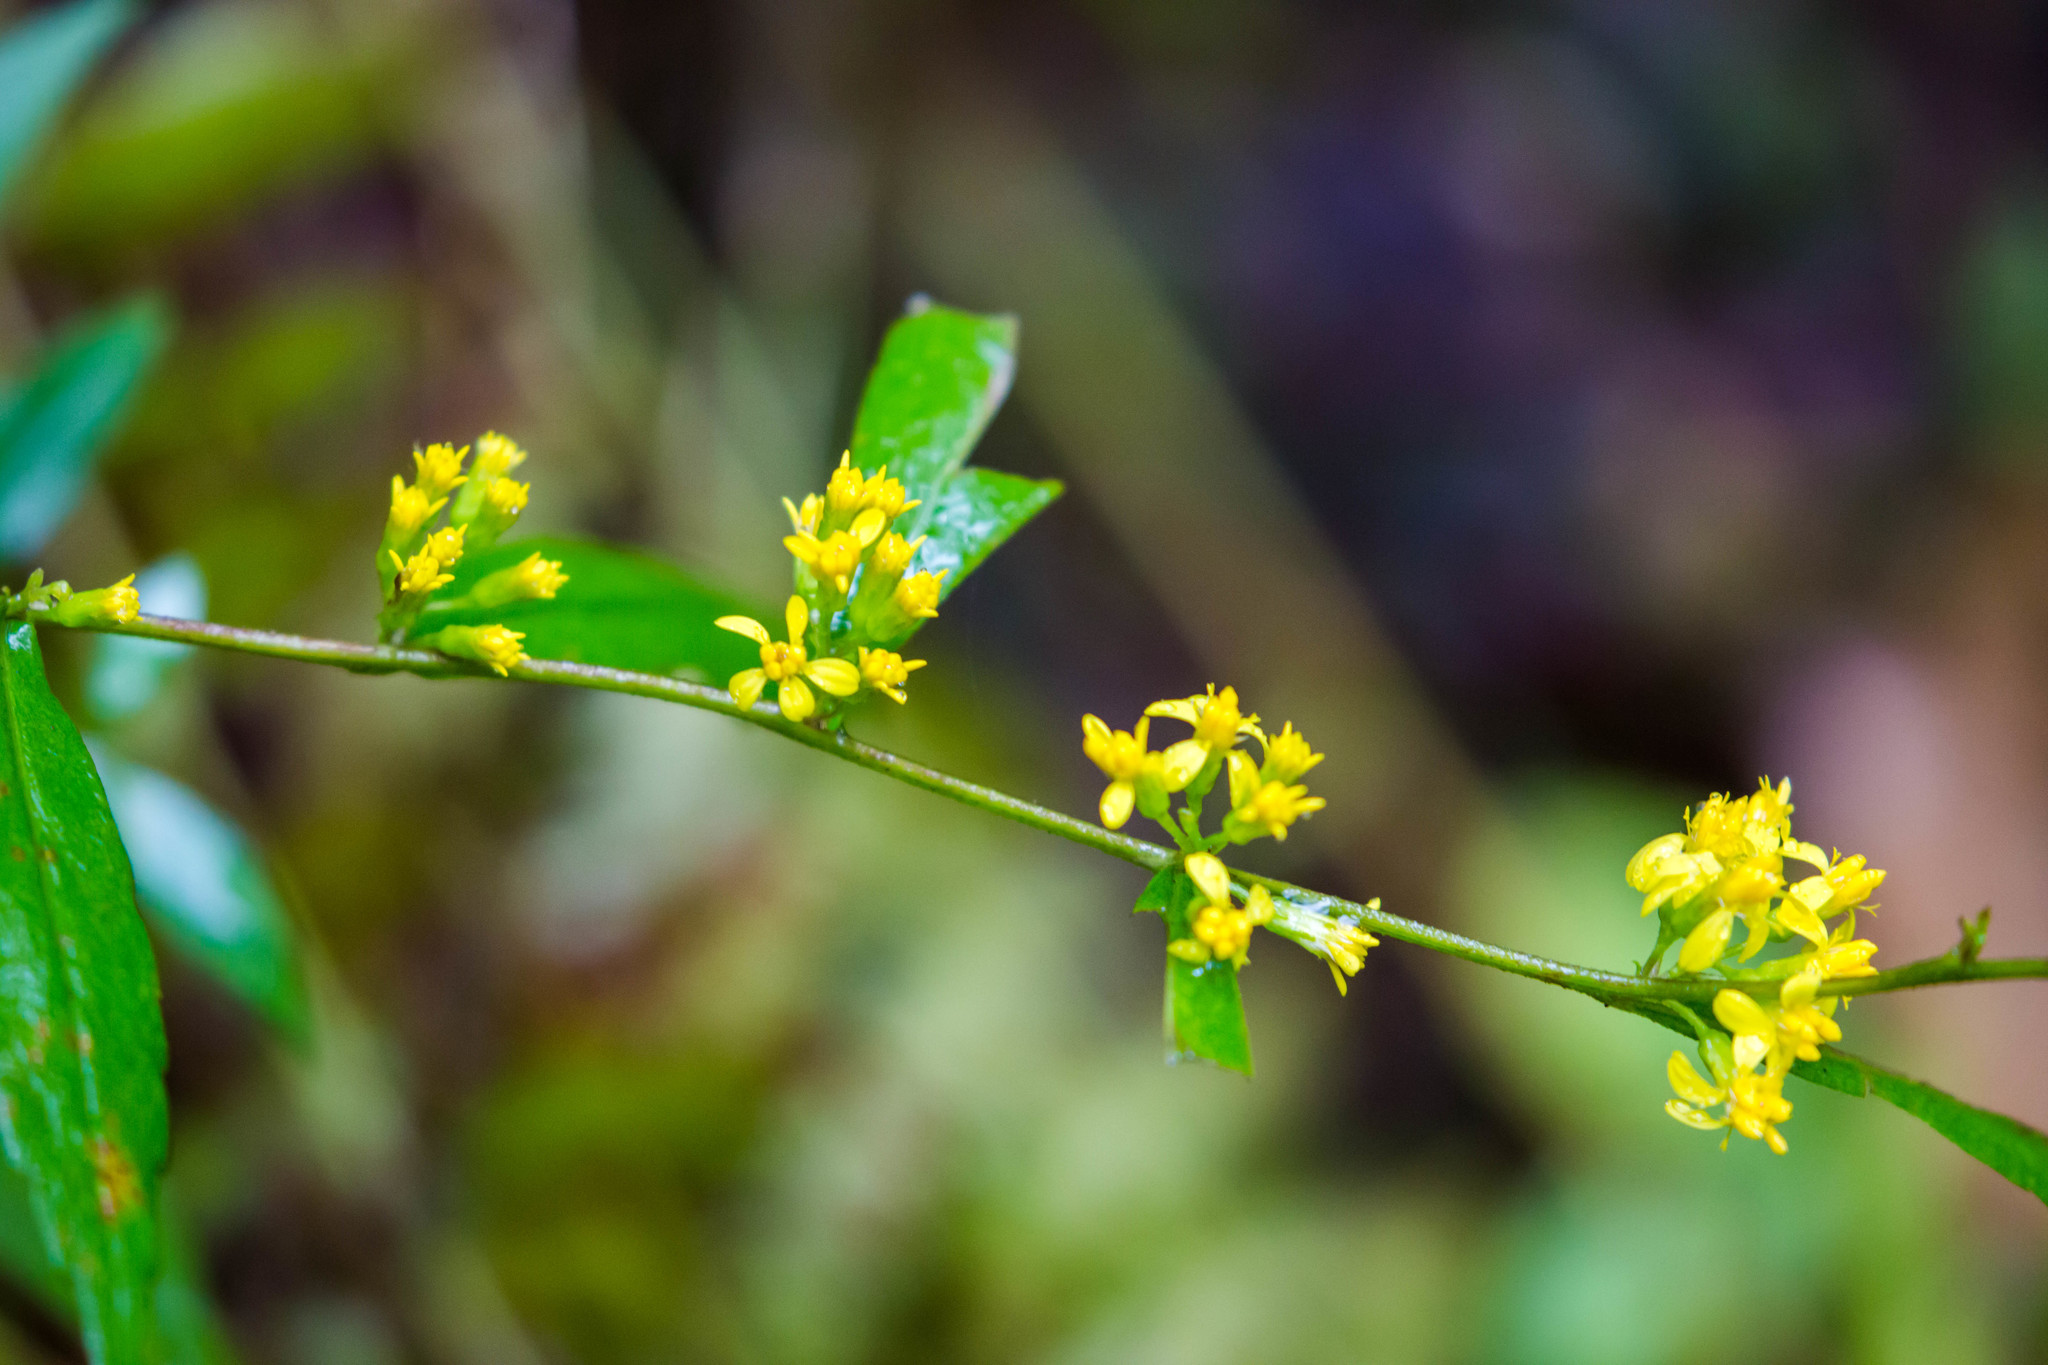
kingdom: Plantae
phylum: Tracheophyta
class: Magnoliopsida
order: Asterales
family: Asteraceae
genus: Solidago
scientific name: Solidago caesia
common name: Woodland goldenrod
